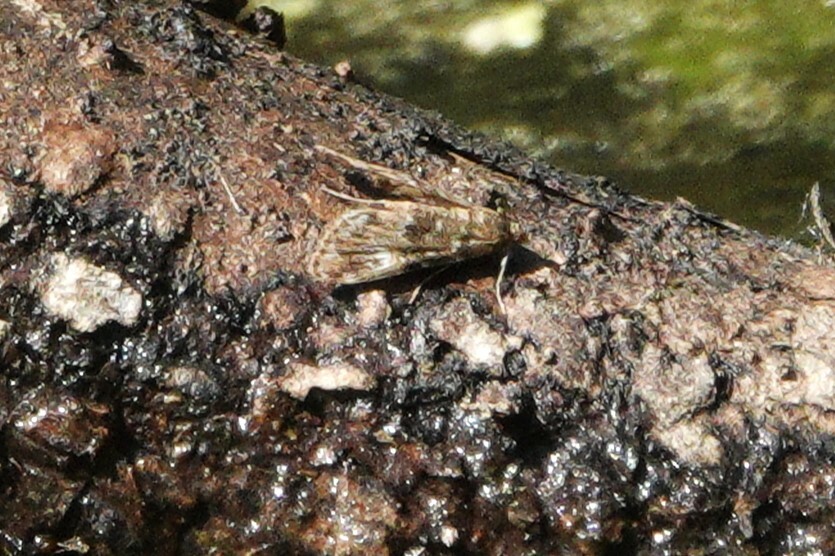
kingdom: Animalia
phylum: Arthropoda
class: Insecta
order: Lepidoptera
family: Crambidae
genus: Elophila
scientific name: Elophila obliteralis
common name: Waterlily leafcutter moth
